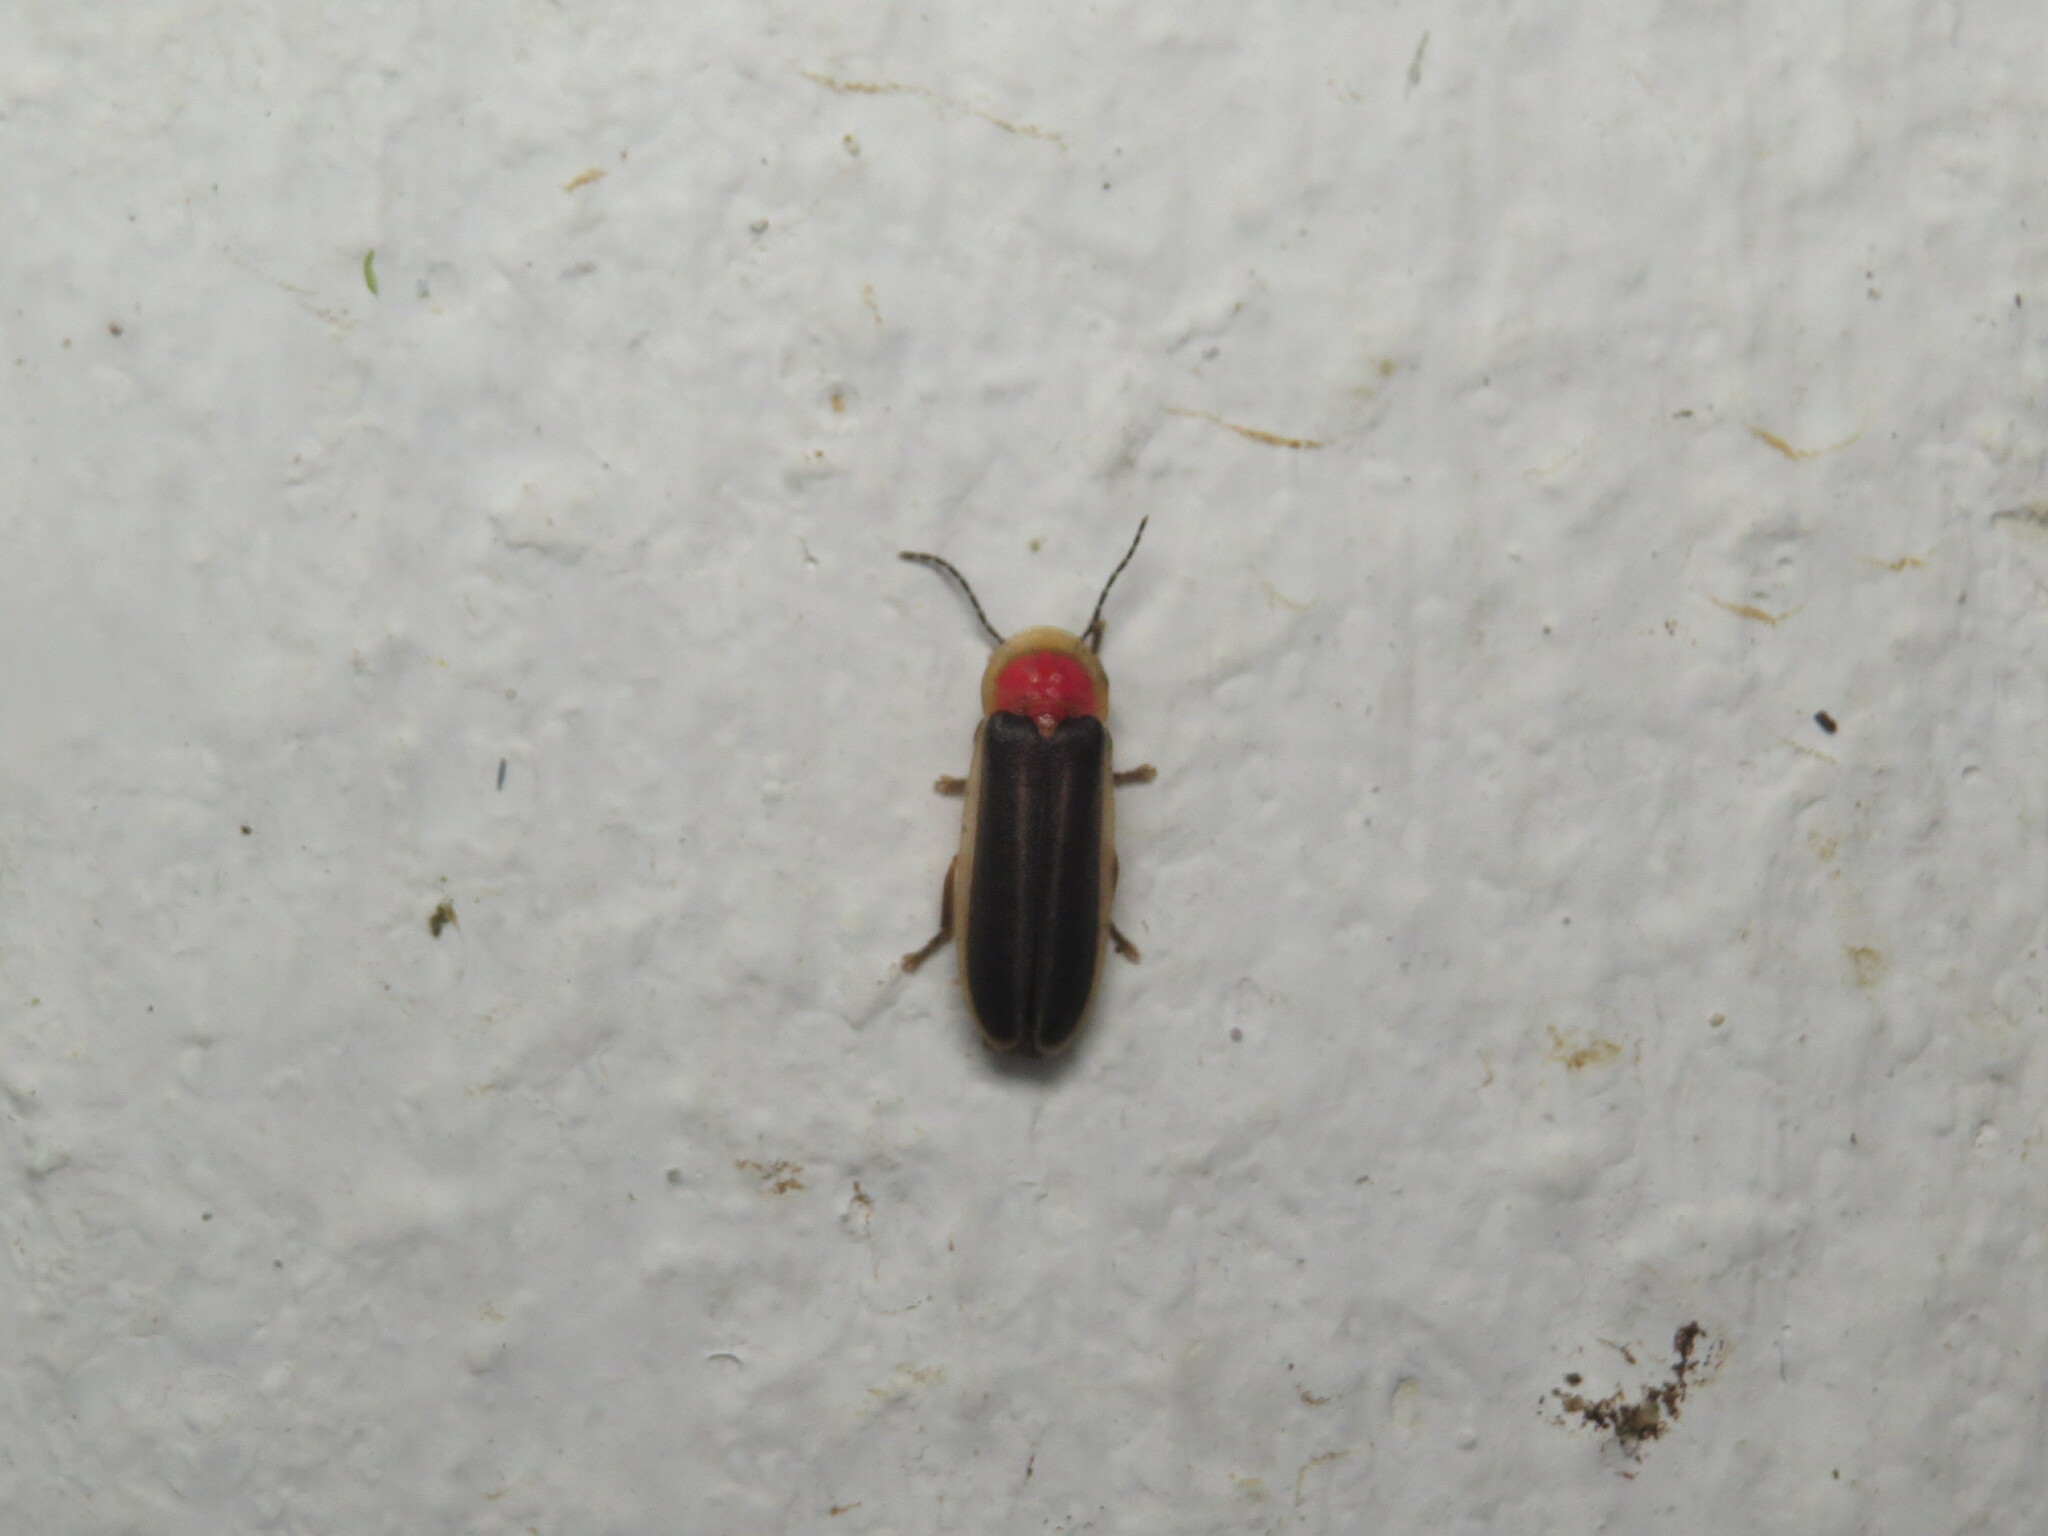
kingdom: Animalia
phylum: Arthropoda
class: Insecta
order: Coleoptera
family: Lampyridae
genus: Heterophotinus
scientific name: Heterophotinus vittatus
